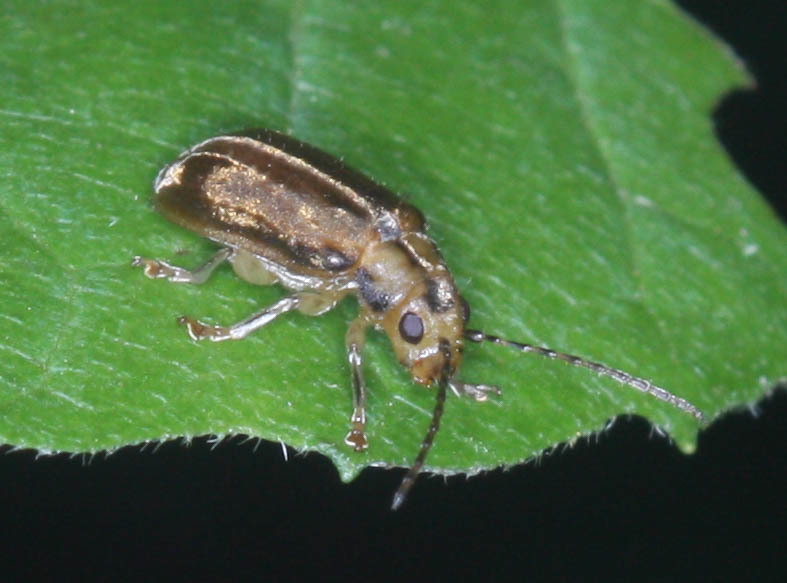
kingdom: Animalia
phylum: Arthropoda
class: Insecta
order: Coleoptera
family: Chrysomelidae
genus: Pyrrhalta
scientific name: Pyrrhalta viburni
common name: Guelder-rose leaf beetle
